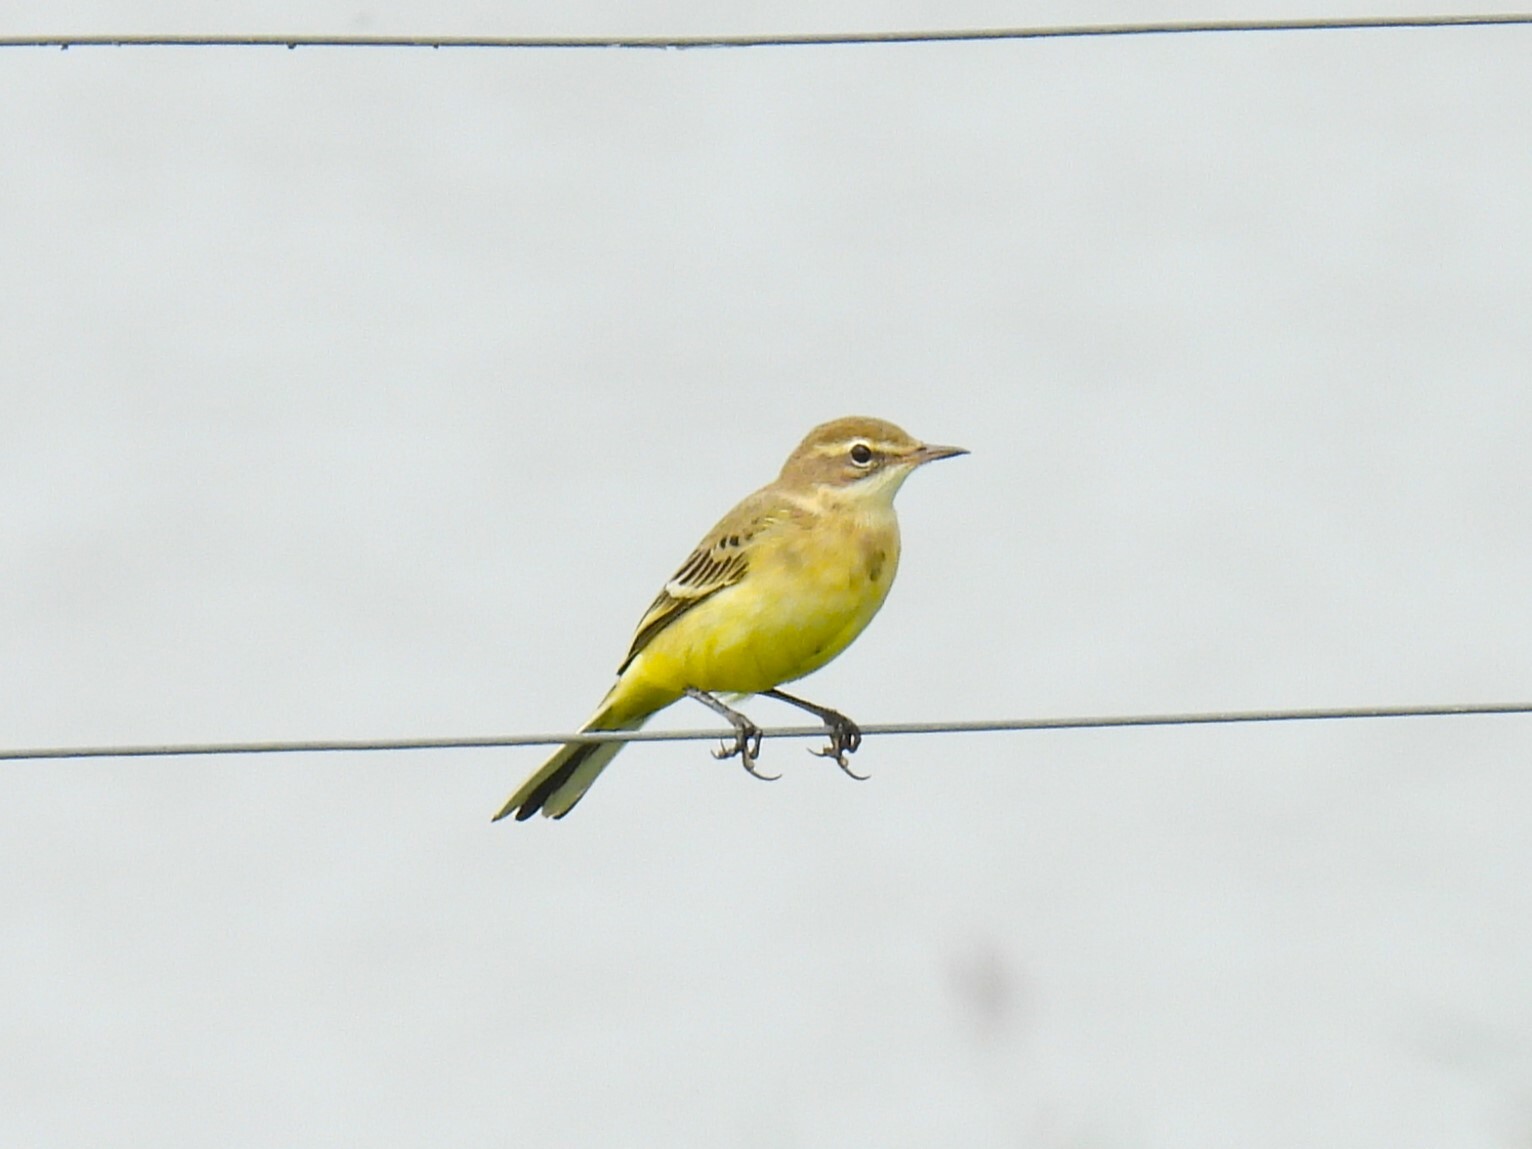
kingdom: Animalia
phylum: Chordata
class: Aves
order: Passeriformes
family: Motacillidae
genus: Motacilla
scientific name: Motacilla flava
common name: Western yellow wagtail
